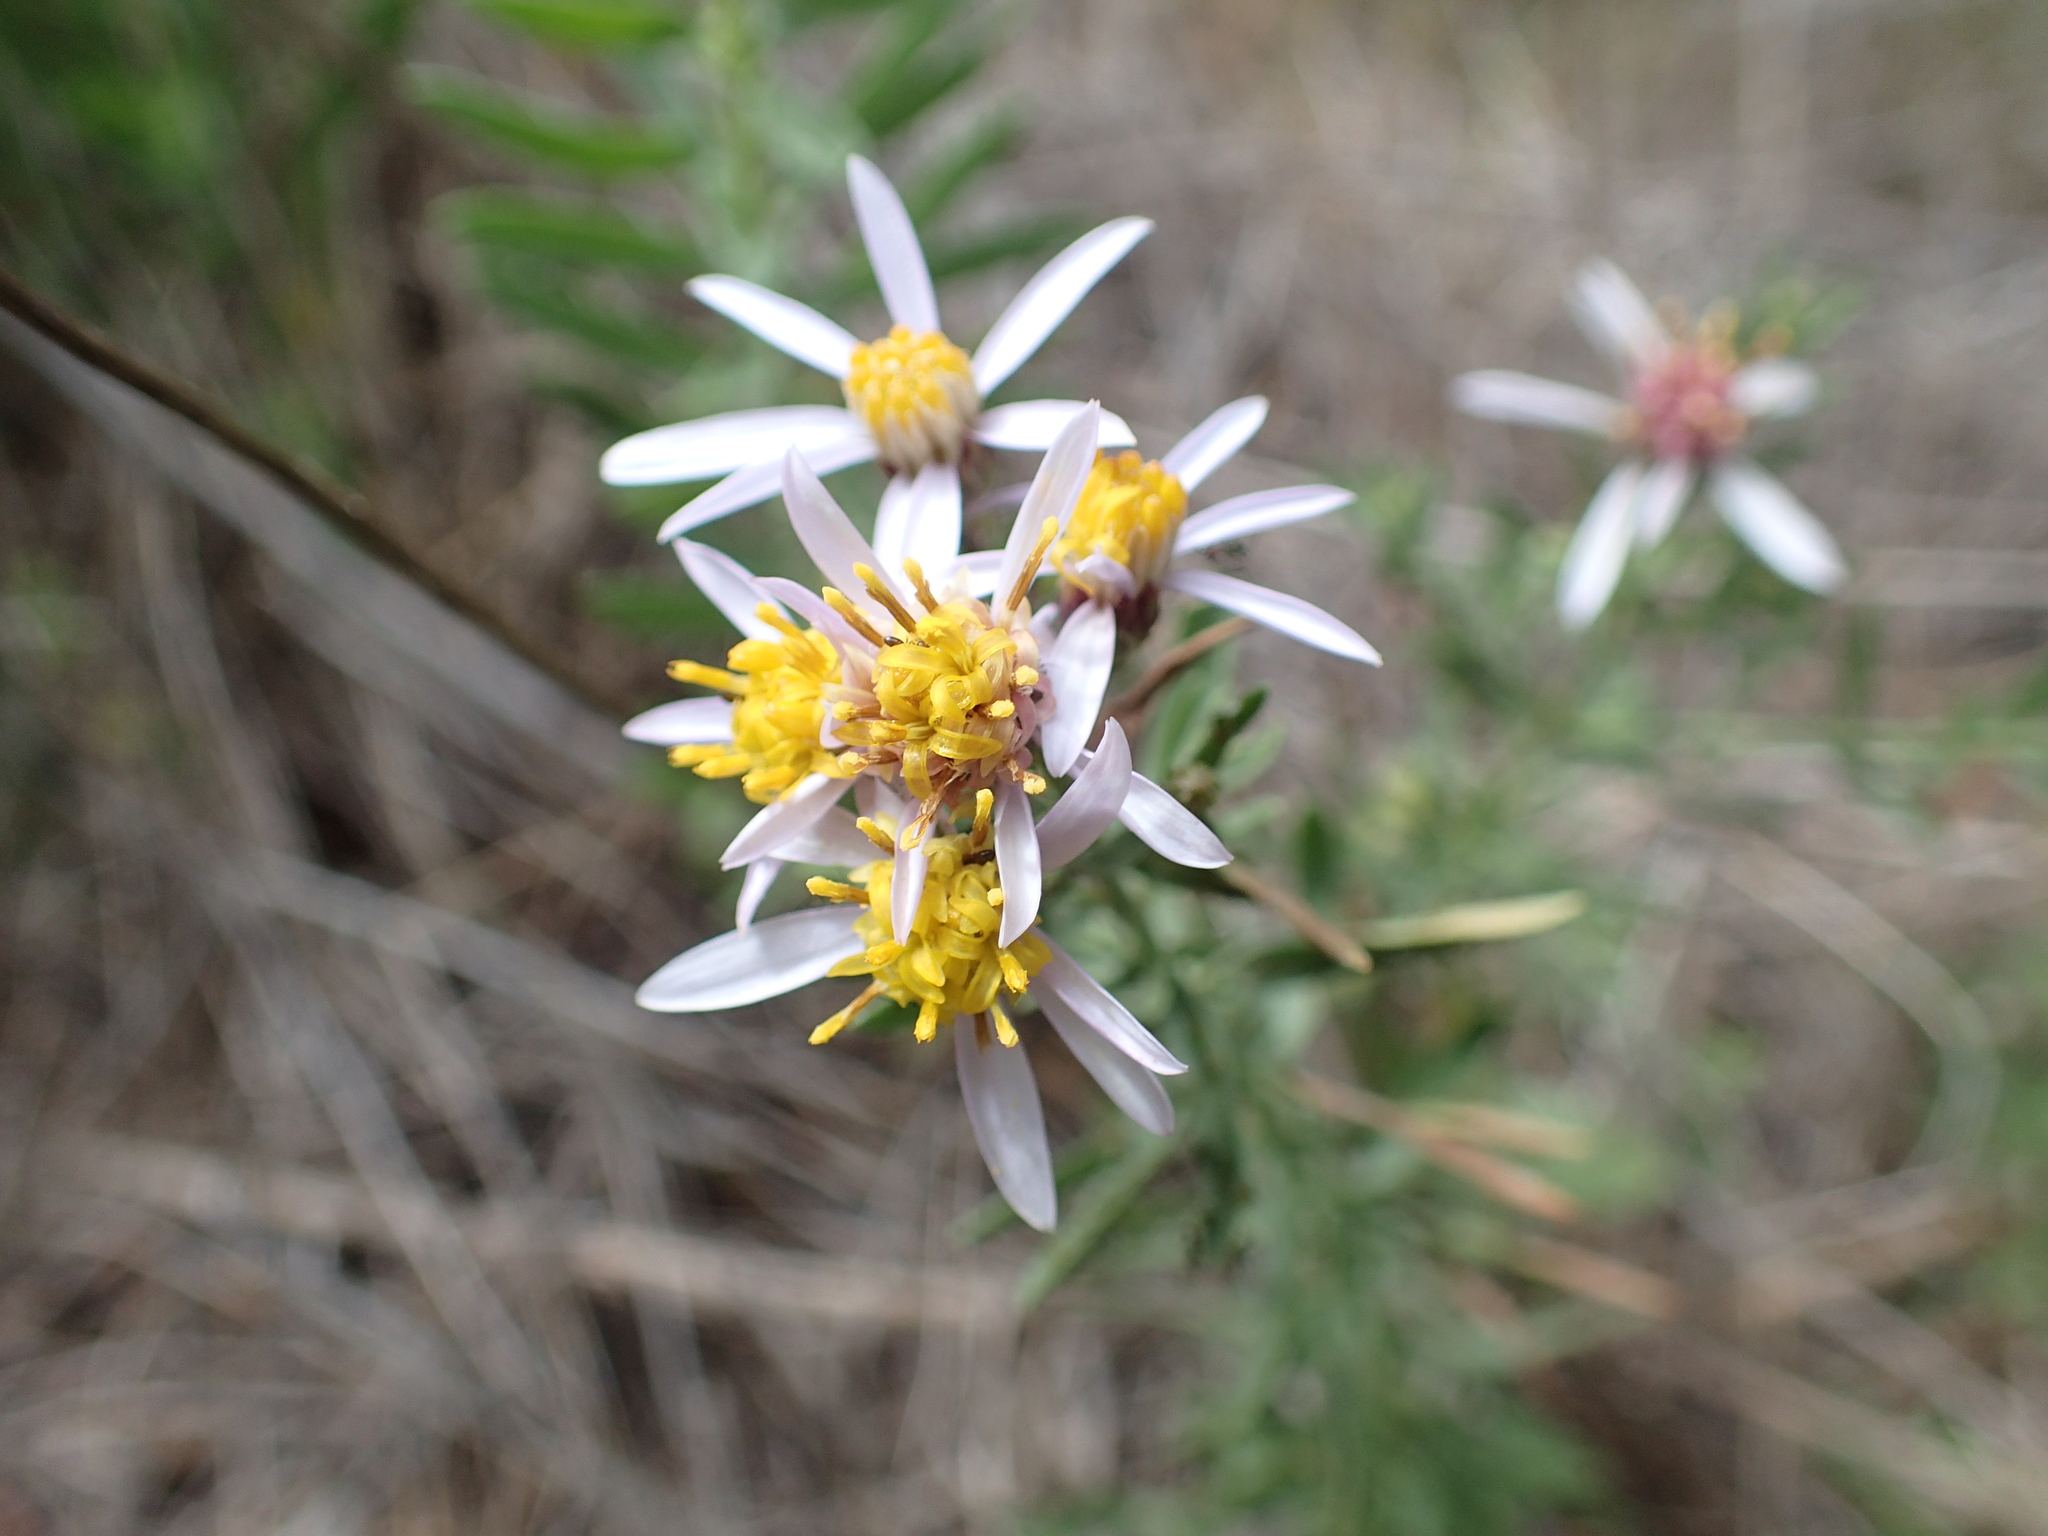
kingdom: Plantae
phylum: Tracheophyta
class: Magnoliopsida
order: Asterales
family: Asteraceae
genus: Galatella
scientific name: Galatella sedifolia
